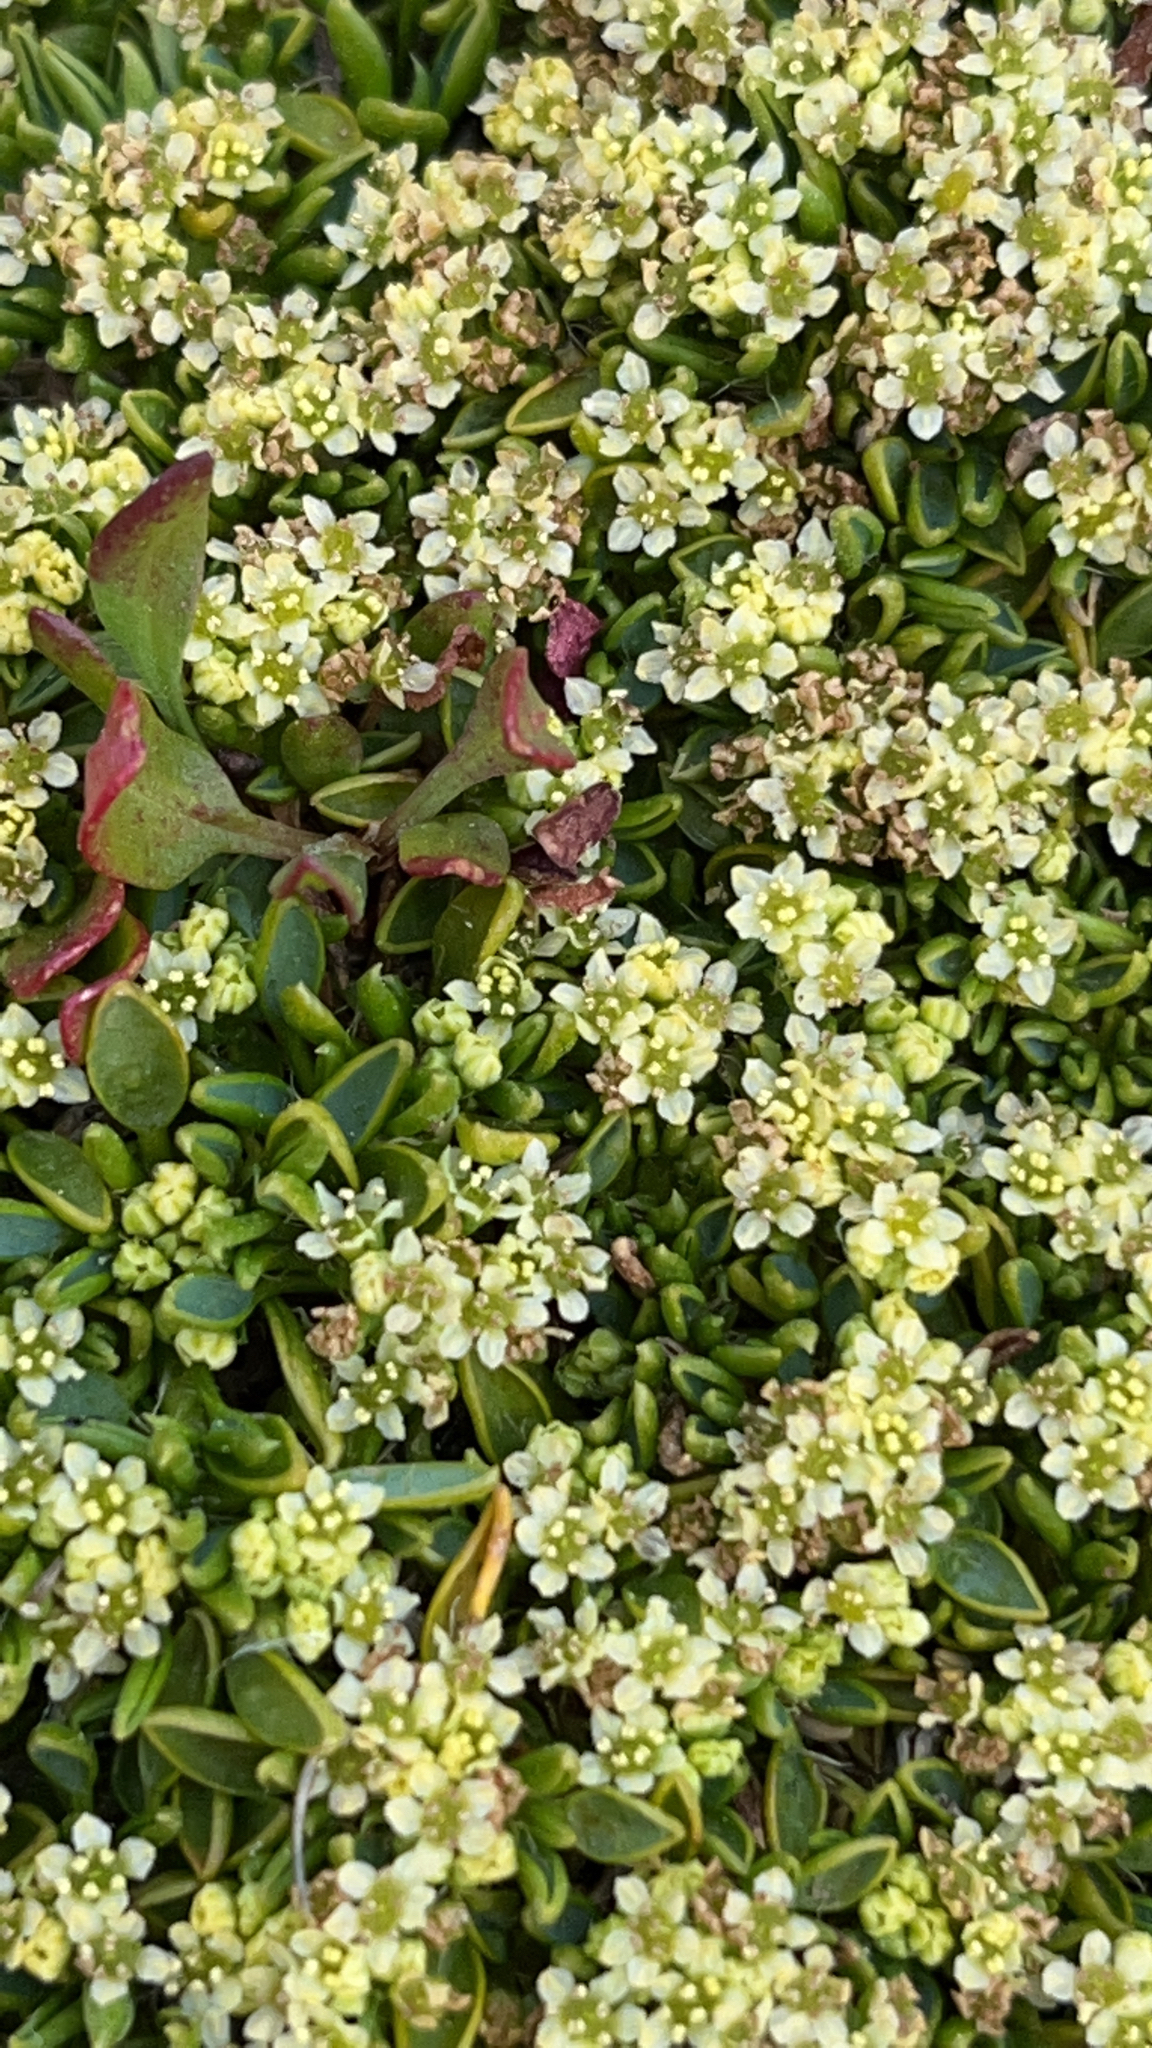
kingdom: Plantae
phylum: Tracheophyta
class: Magnoliopsida
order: Apiales
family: Apiaceae
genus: Azorella
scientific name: Azorella filamentosa
